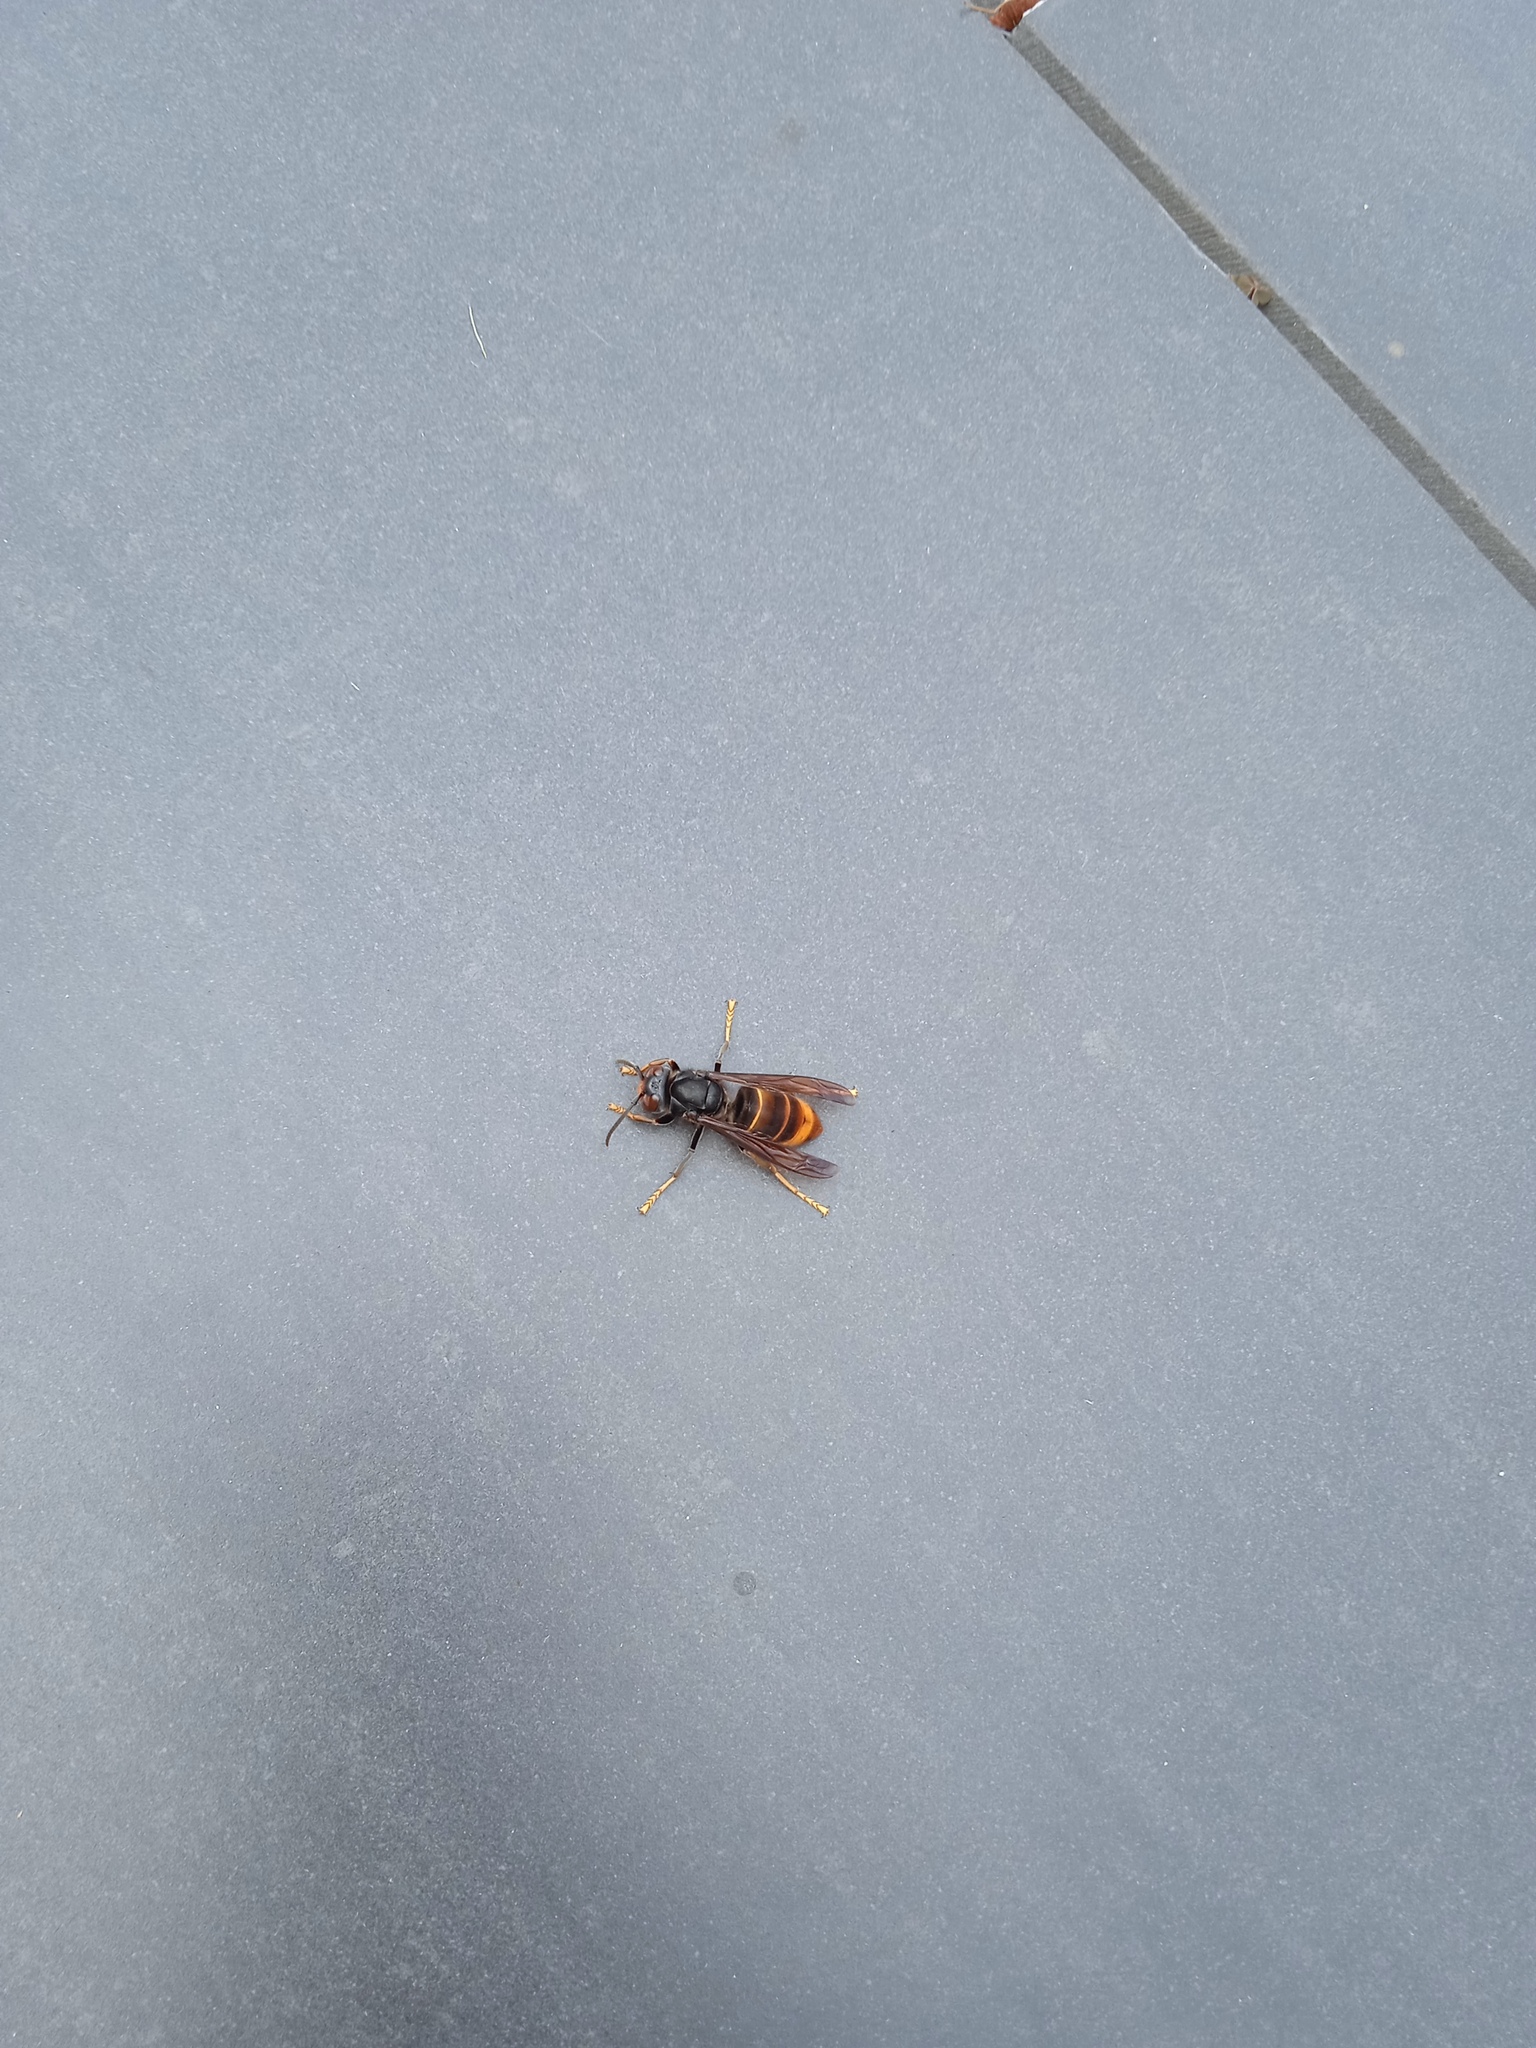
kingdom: Animalia
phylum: Arthropoda
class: Insecta
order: Hymenoptera
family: Vespidae
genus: Vespa
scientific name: Vespa velutina
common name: Asian hornet
